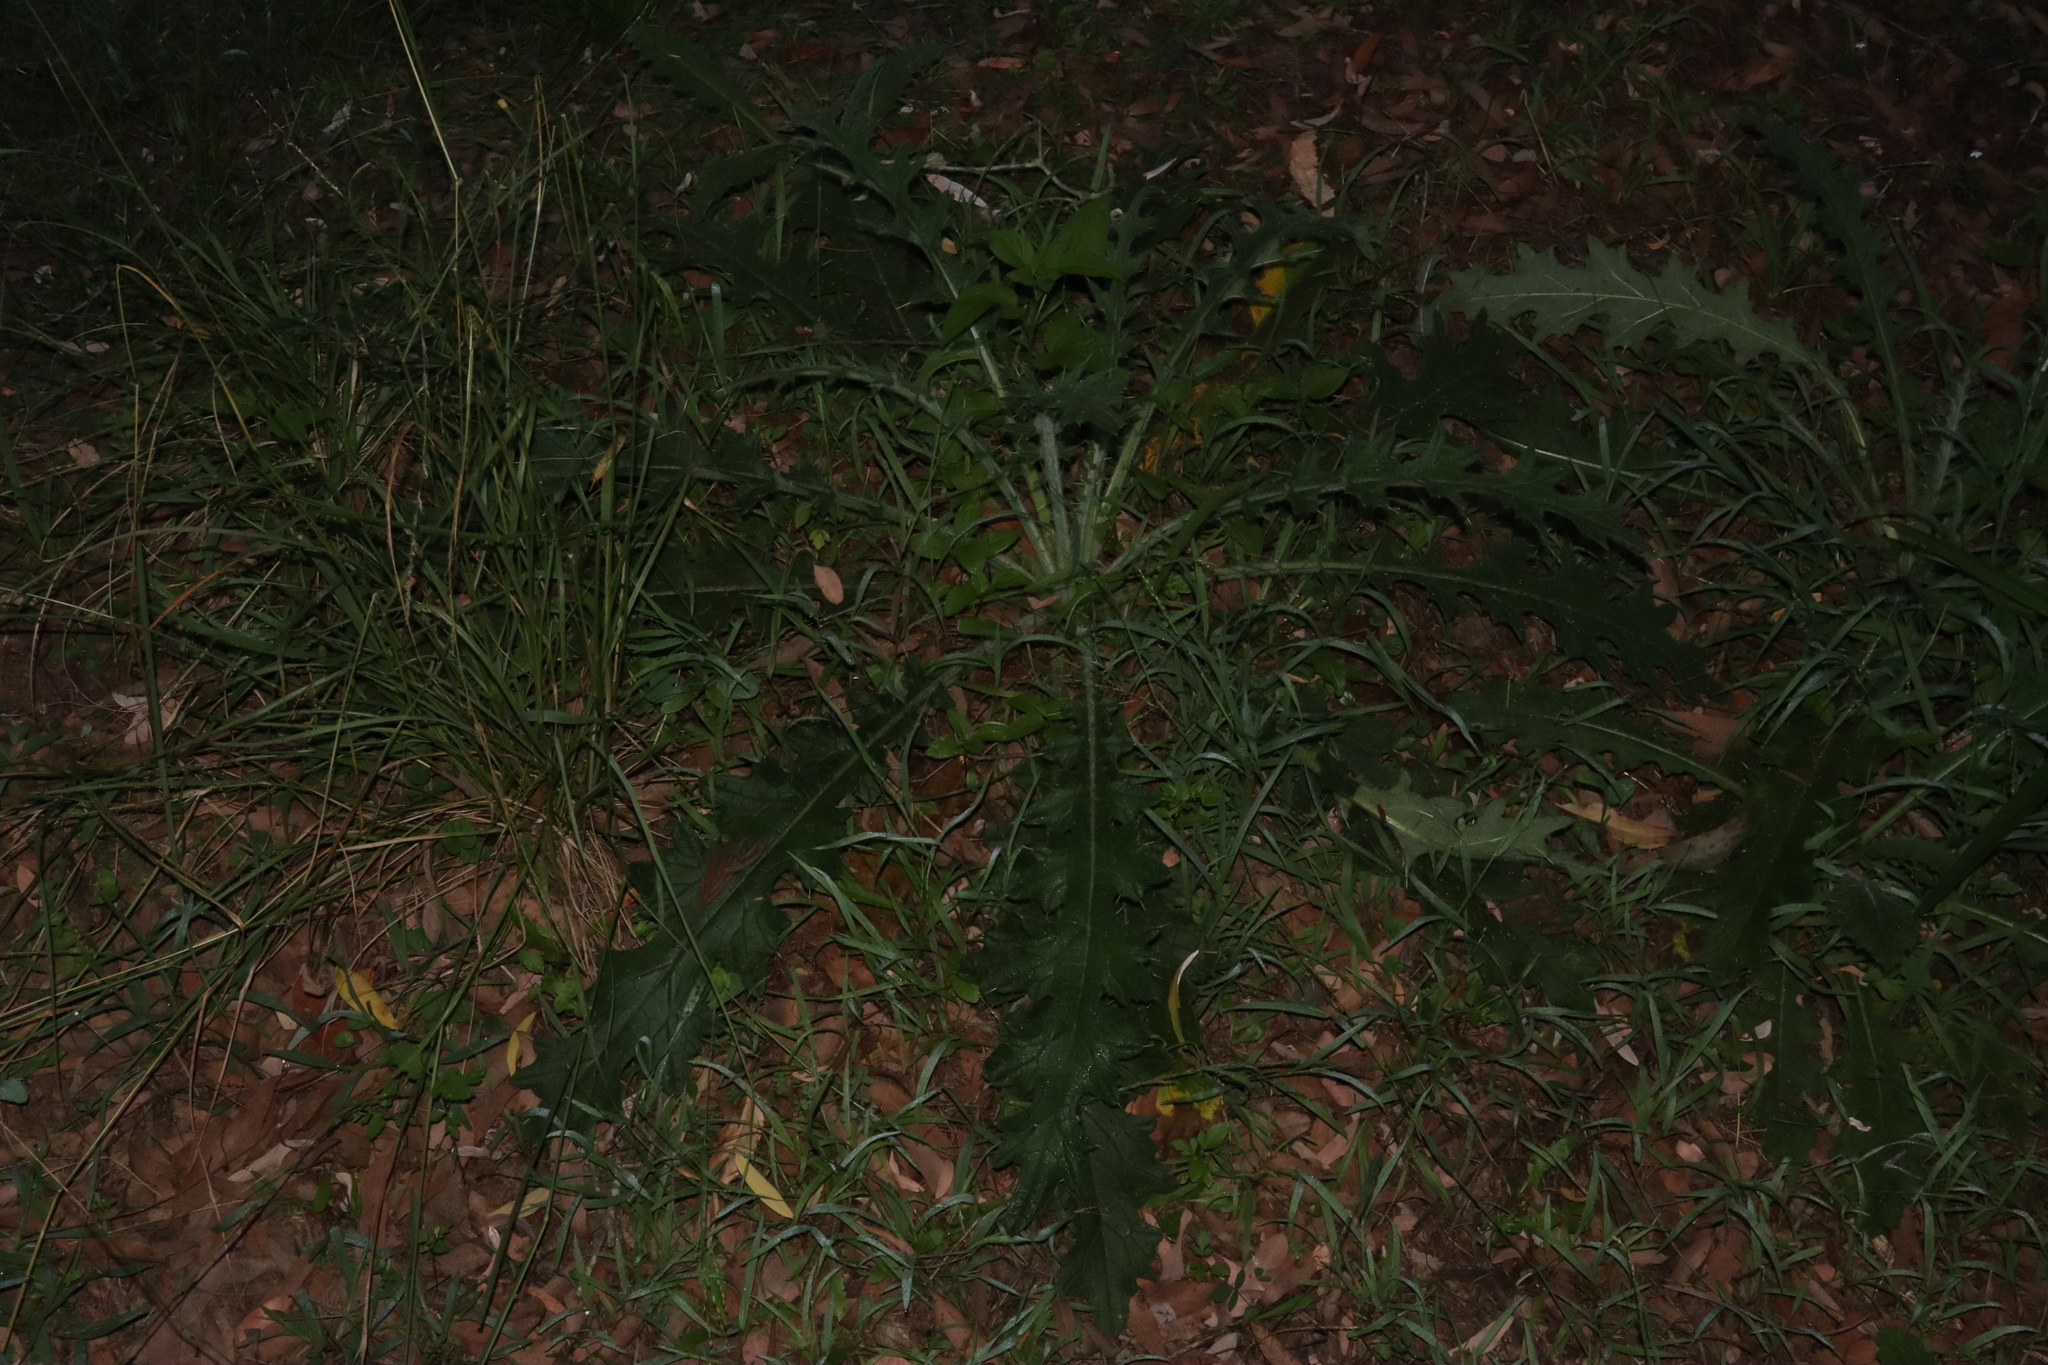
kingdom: Plantae
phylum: Tracheophyta
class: Magnoliopsida
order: Asterales
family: Asteraceae
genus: Cirsium
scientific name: Cirsium vulgare
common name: Bull thistle
